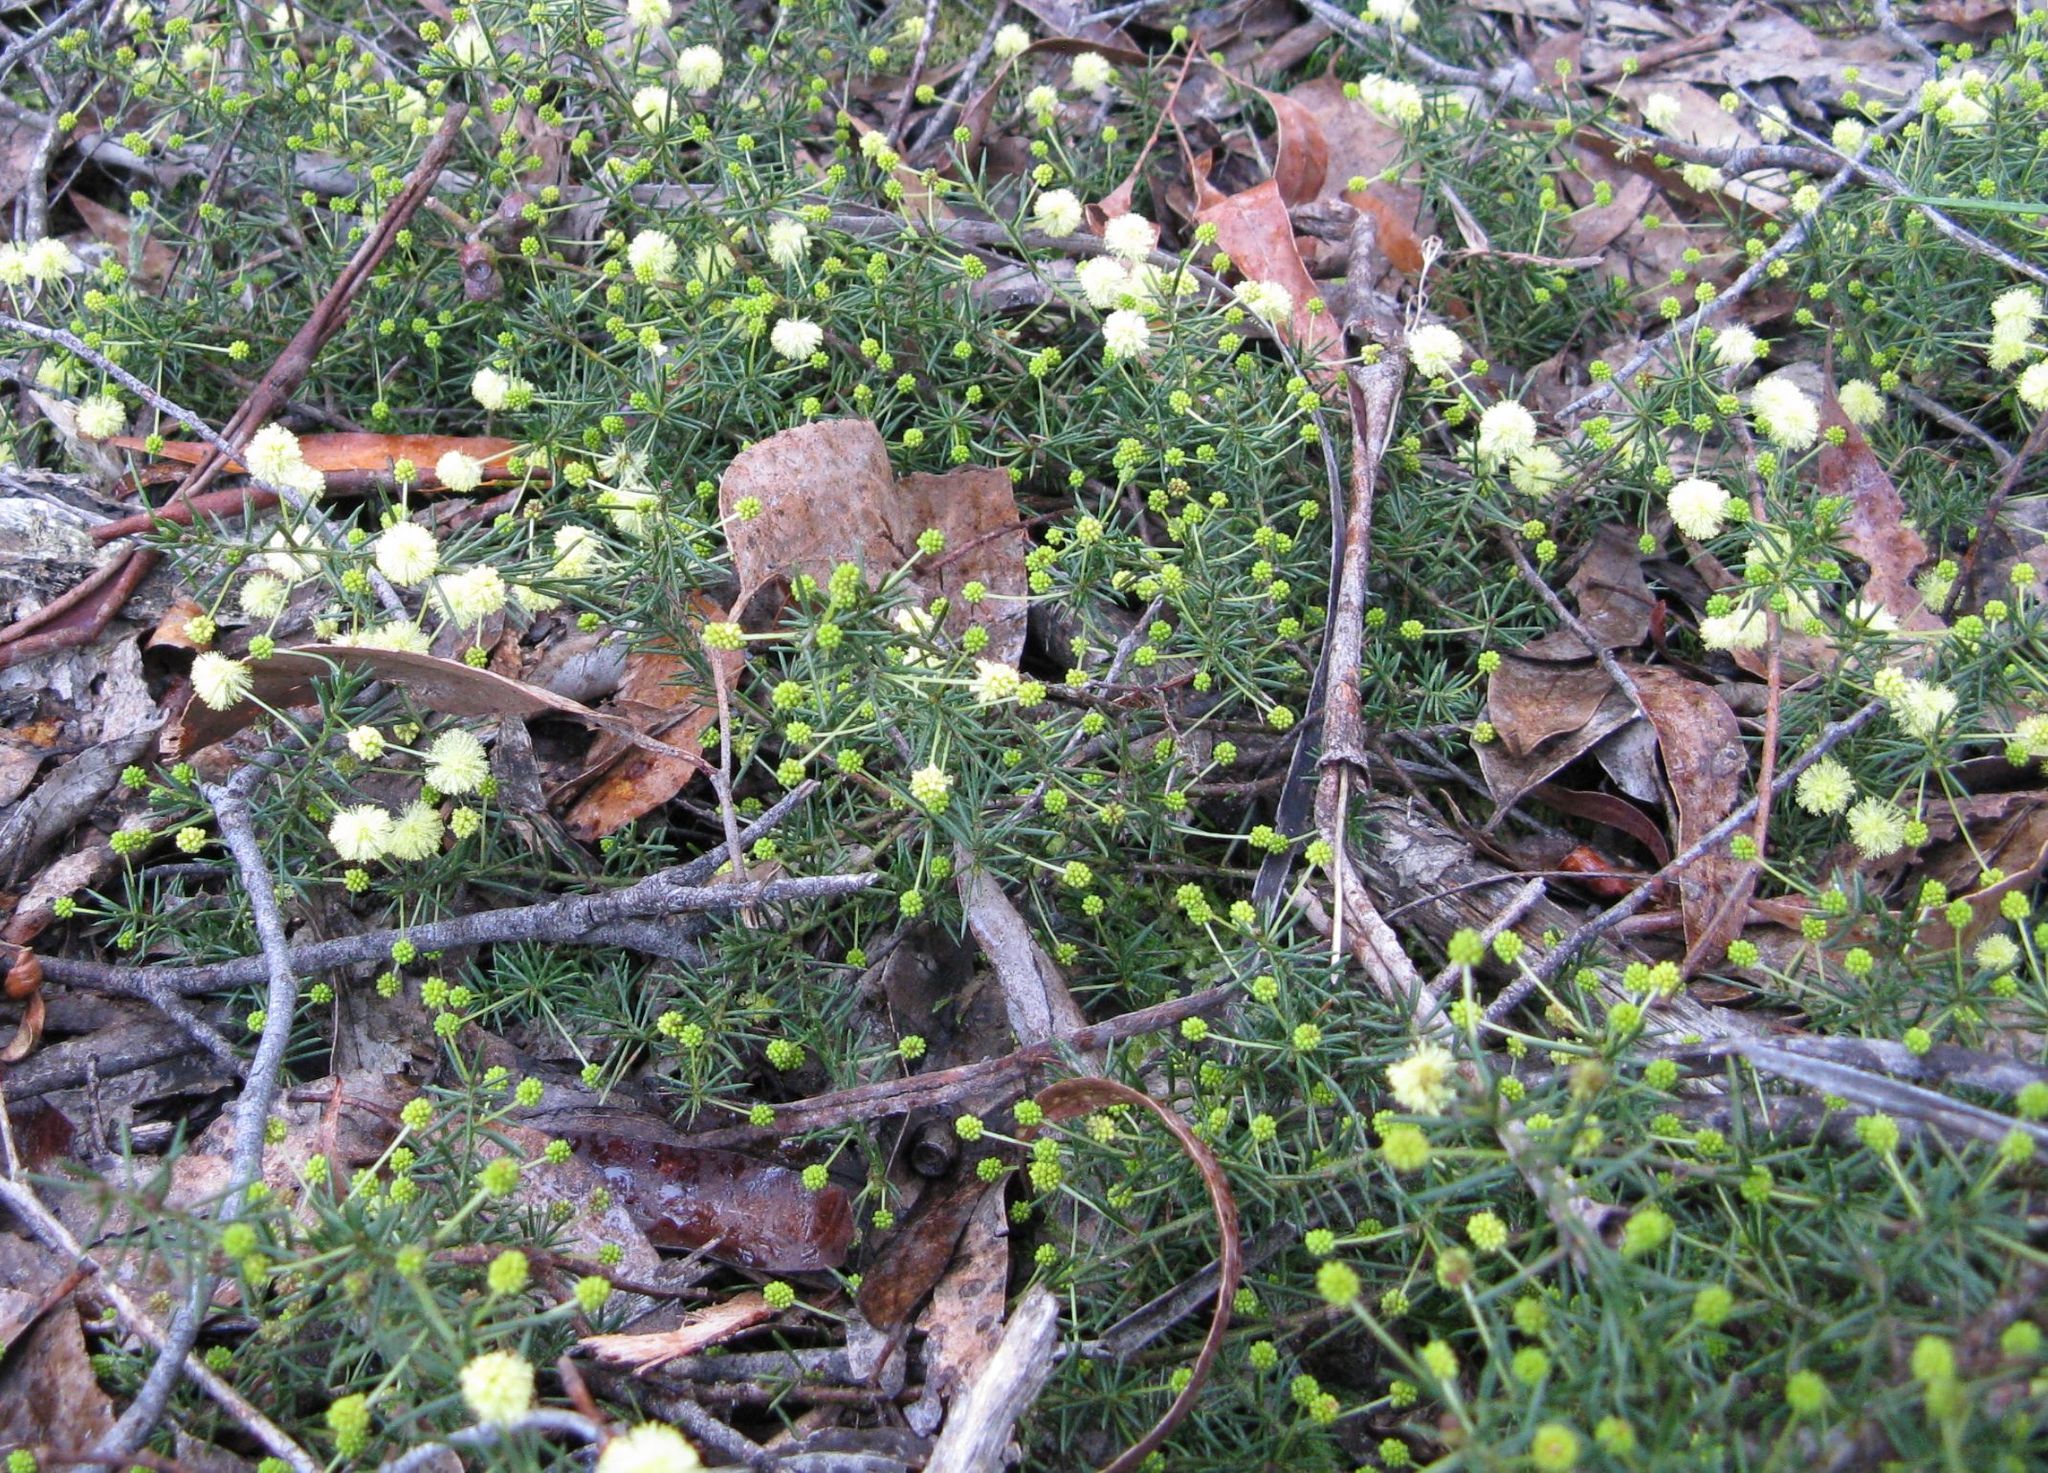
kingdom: Plantae
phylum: Tracheophyta
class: Magnoliopsida
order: Fabales
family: Fabaceae
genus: Acacia
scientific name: Acacia aculeatissima
